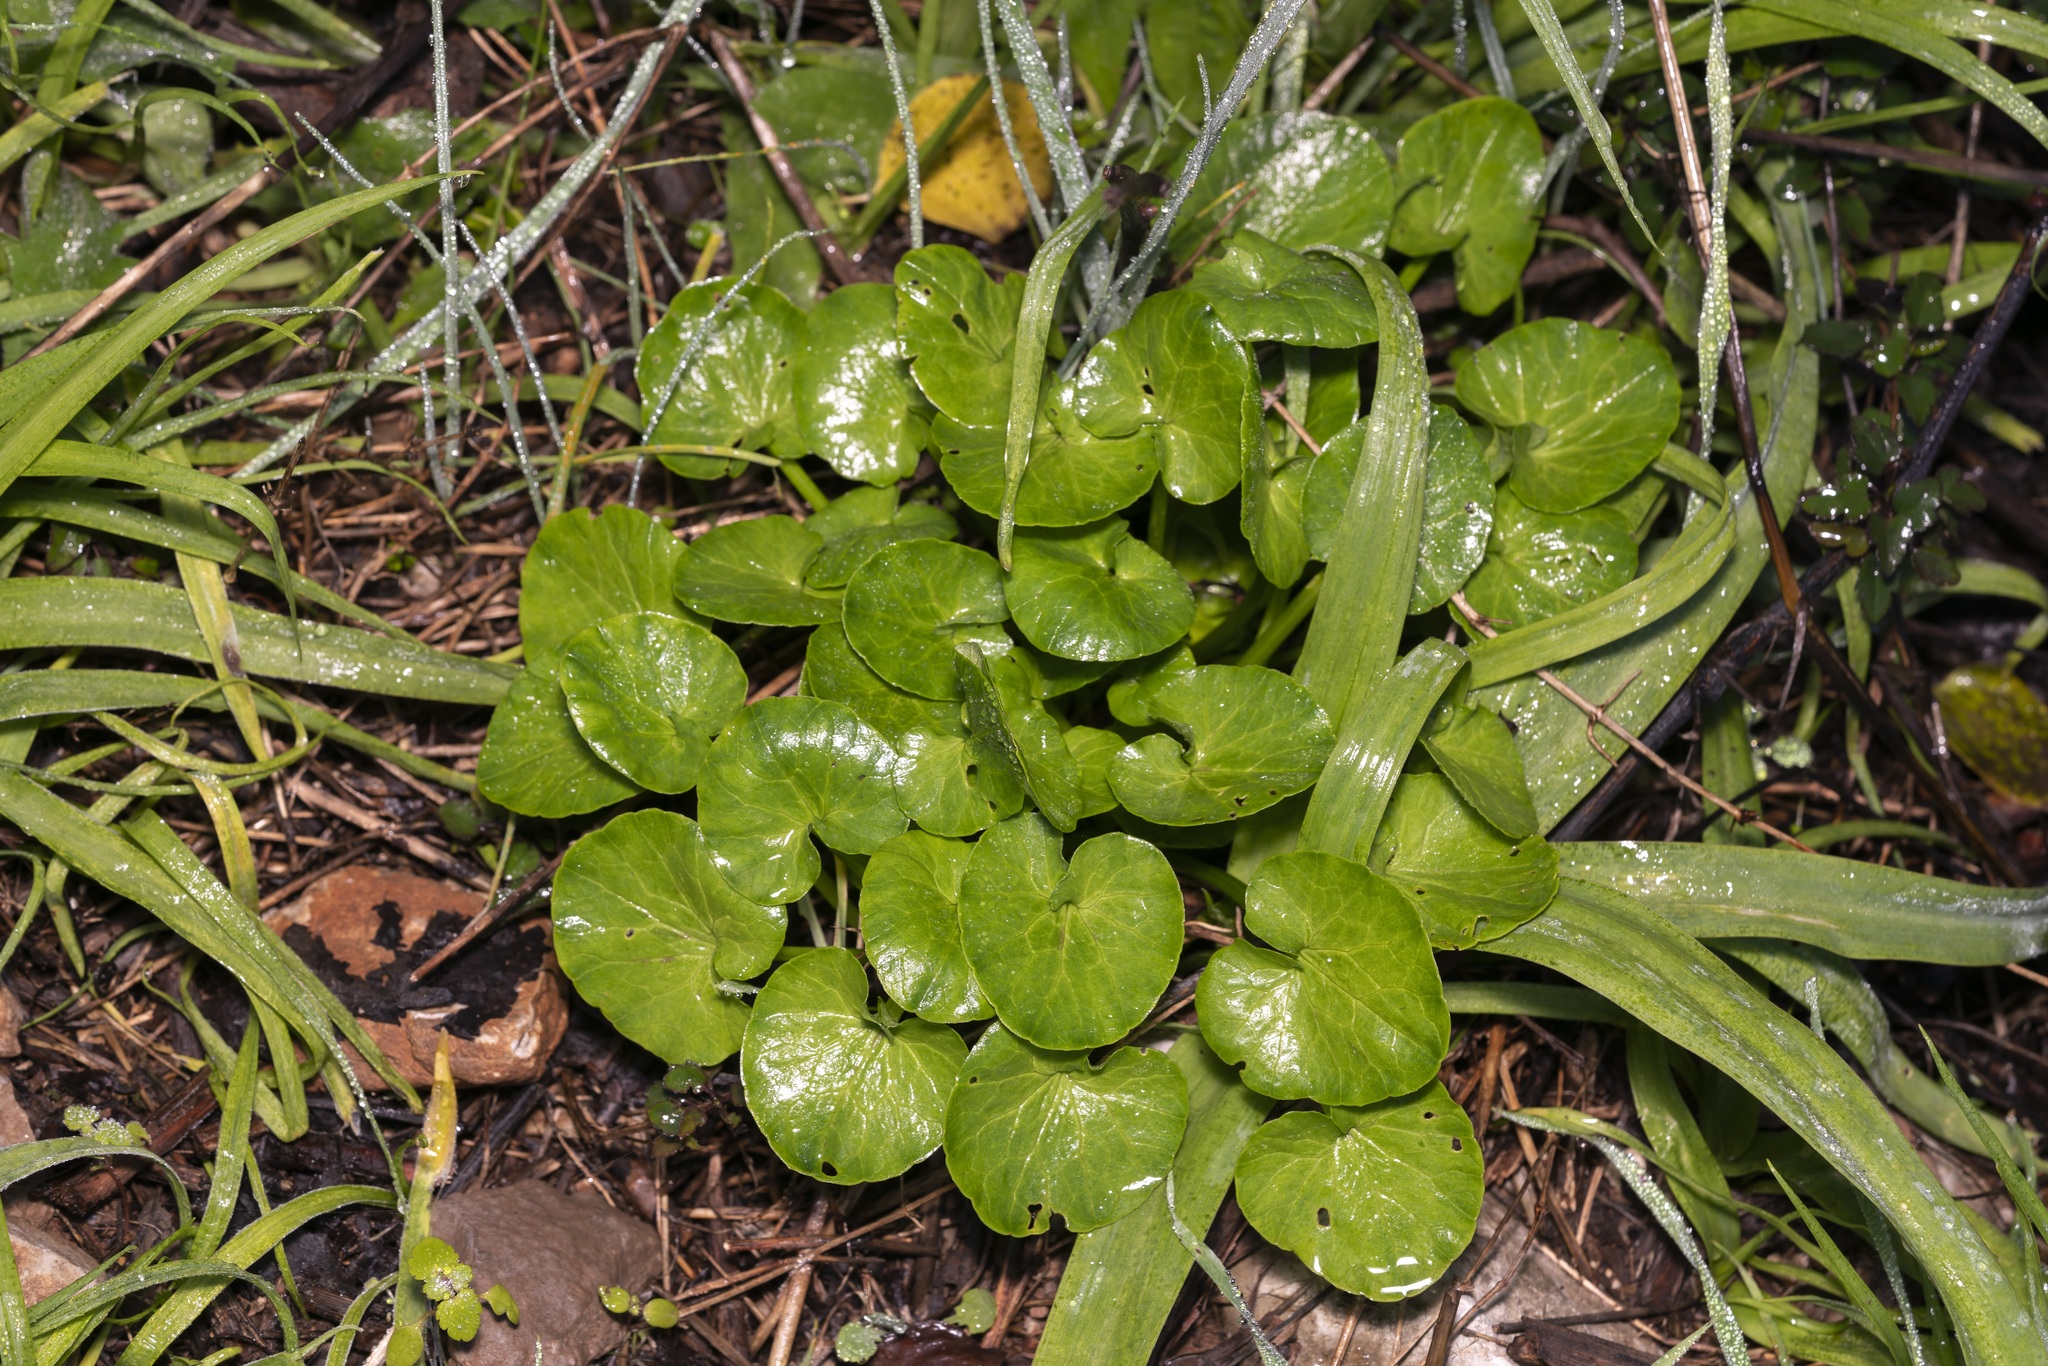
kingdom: Plantae
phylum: Tracheophyta
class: Magnoliopsida
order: Ranunculales
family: Ranunculaceae
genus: Ficaria
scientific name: Ficaria chrysocephala
